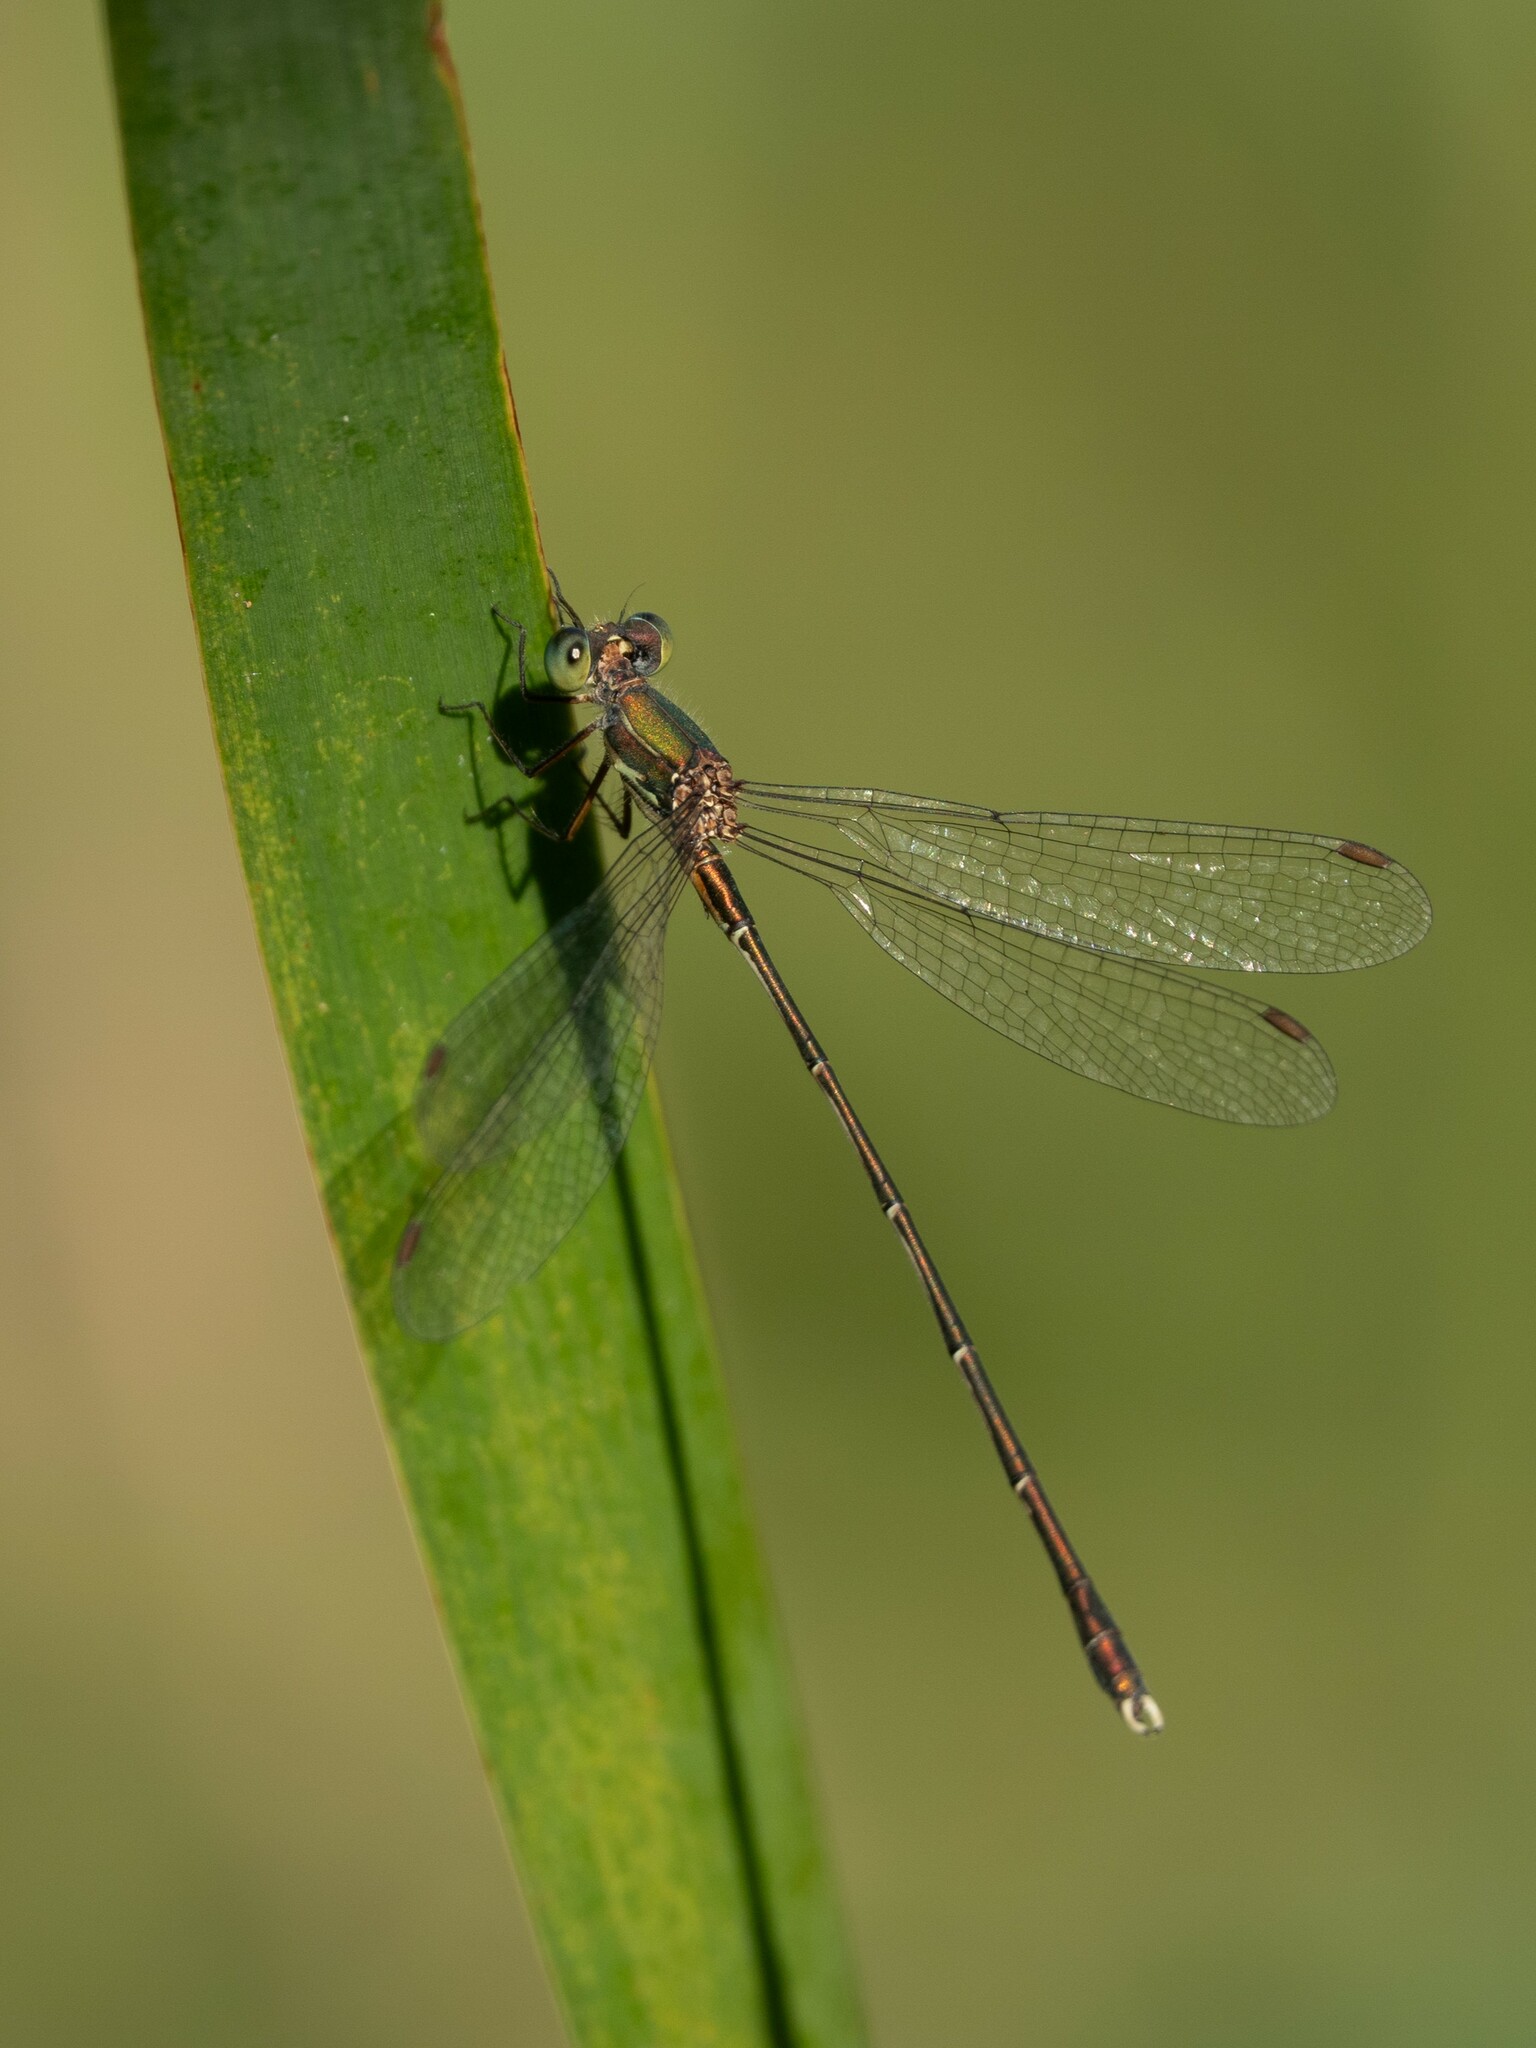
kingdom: Animalia
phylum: Arthropoda
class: Insecta
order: Odonata
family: Lestidae
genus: Chalcolestes
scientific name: Chalcolestes parvidens
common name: Eastern willow spreadwing
